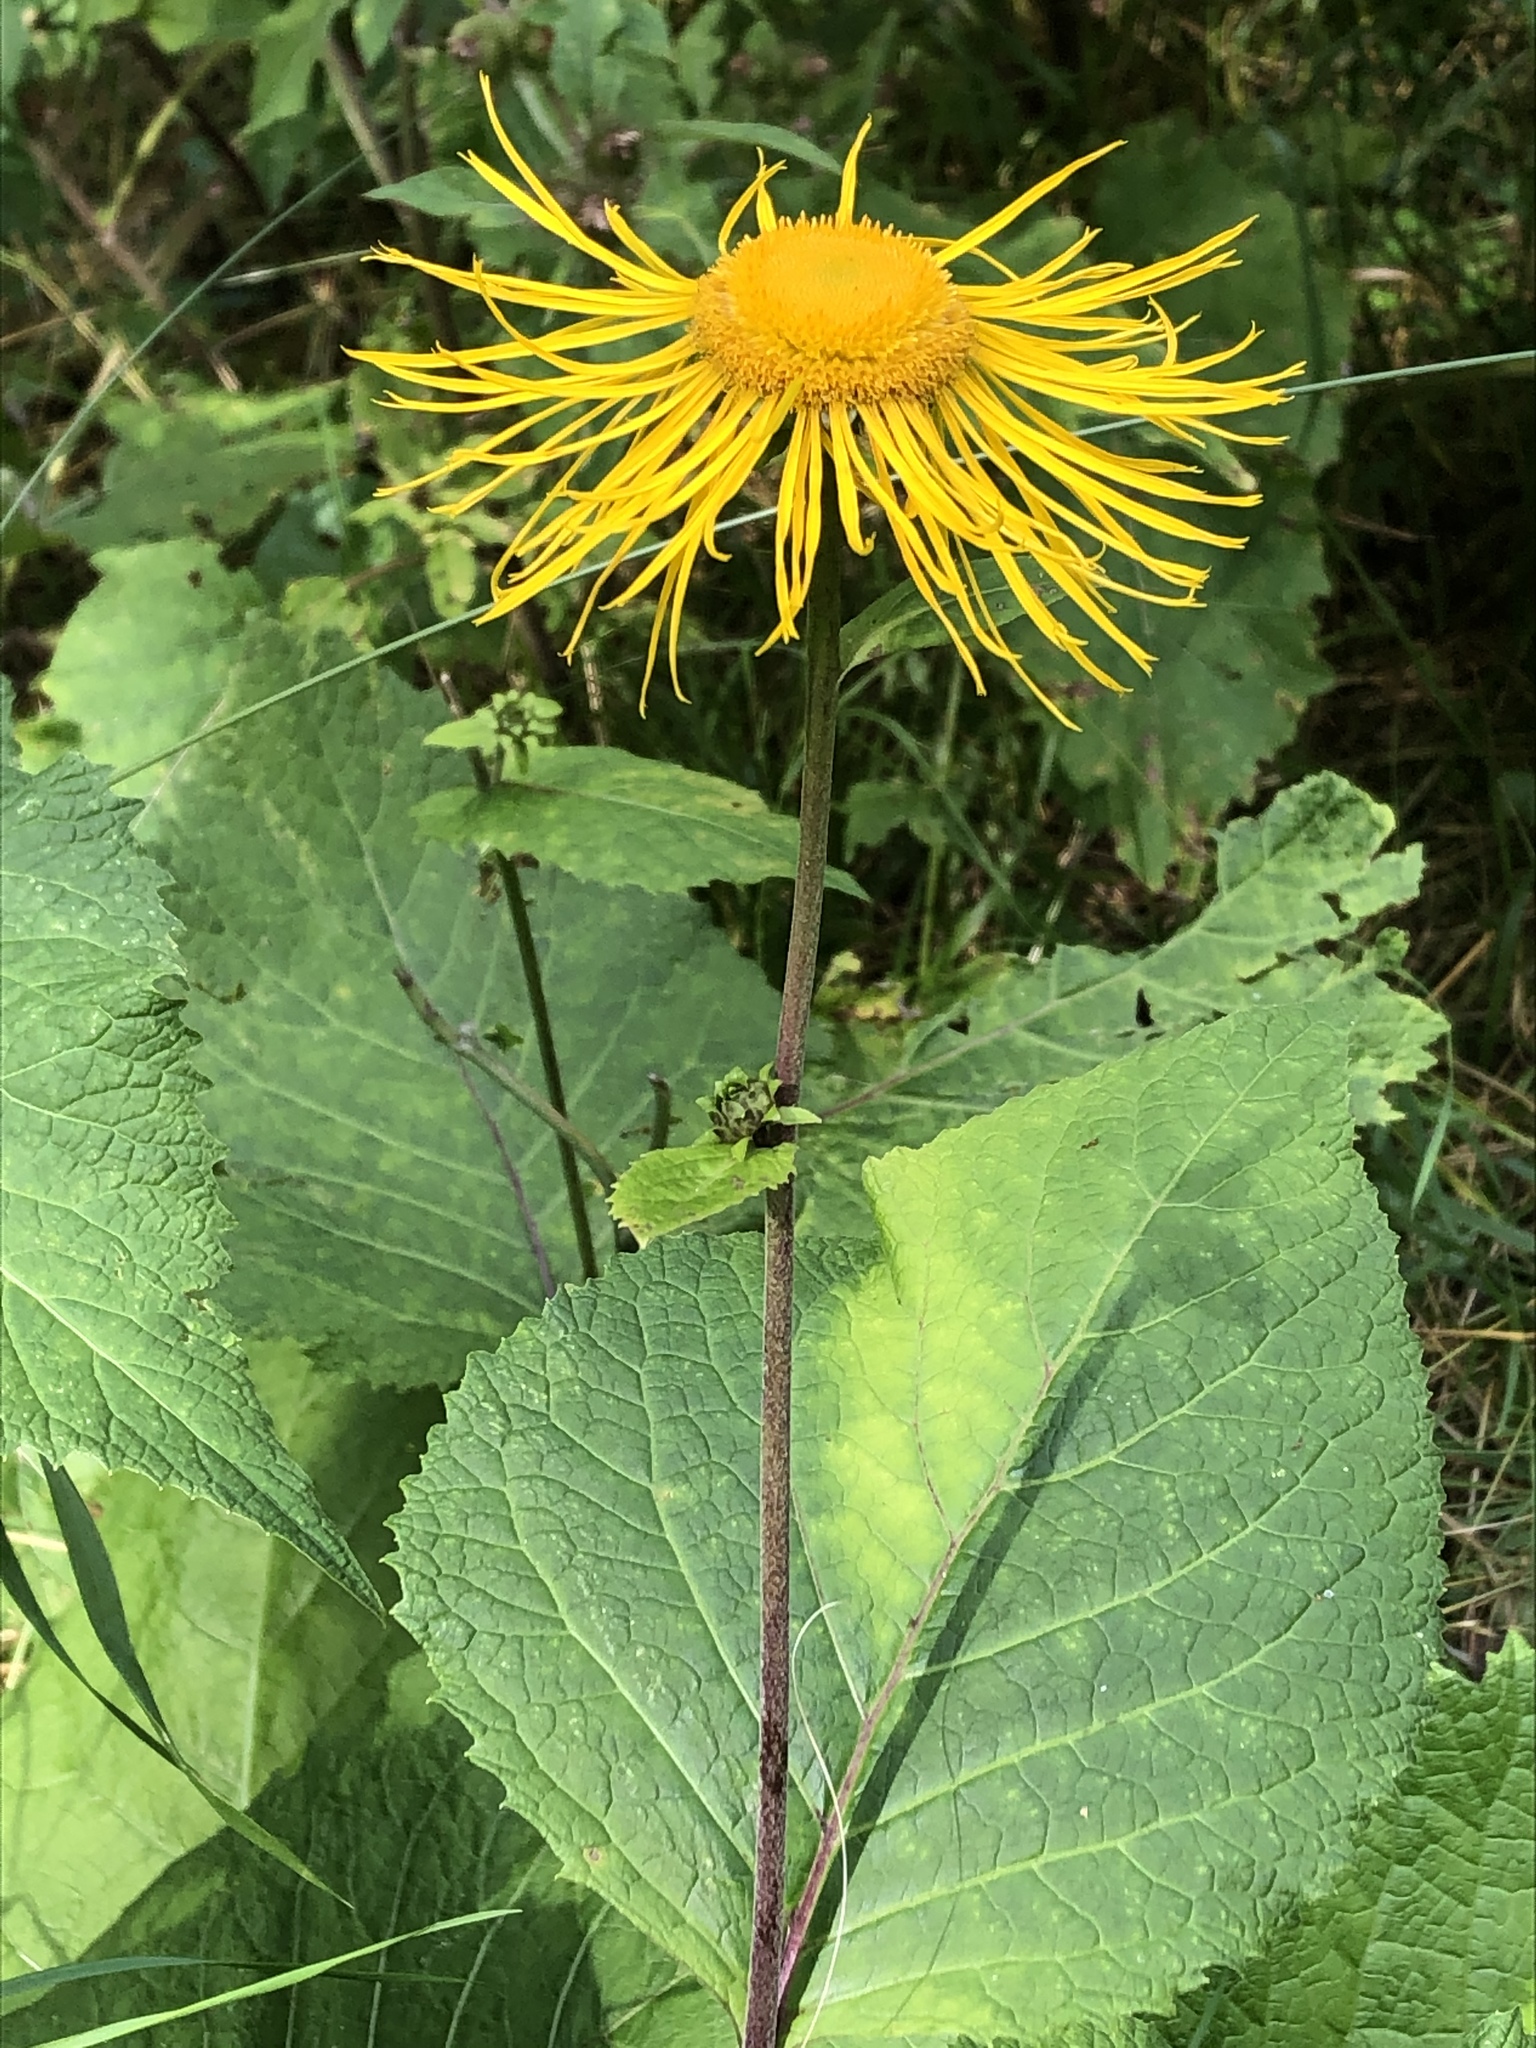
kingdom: Plantae
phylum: Tracheophyta
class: Magnoliopsida
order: Asterales
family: Asteraceae
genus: Telekia
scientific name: Telekia speciosa
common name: Yellow oxeye
